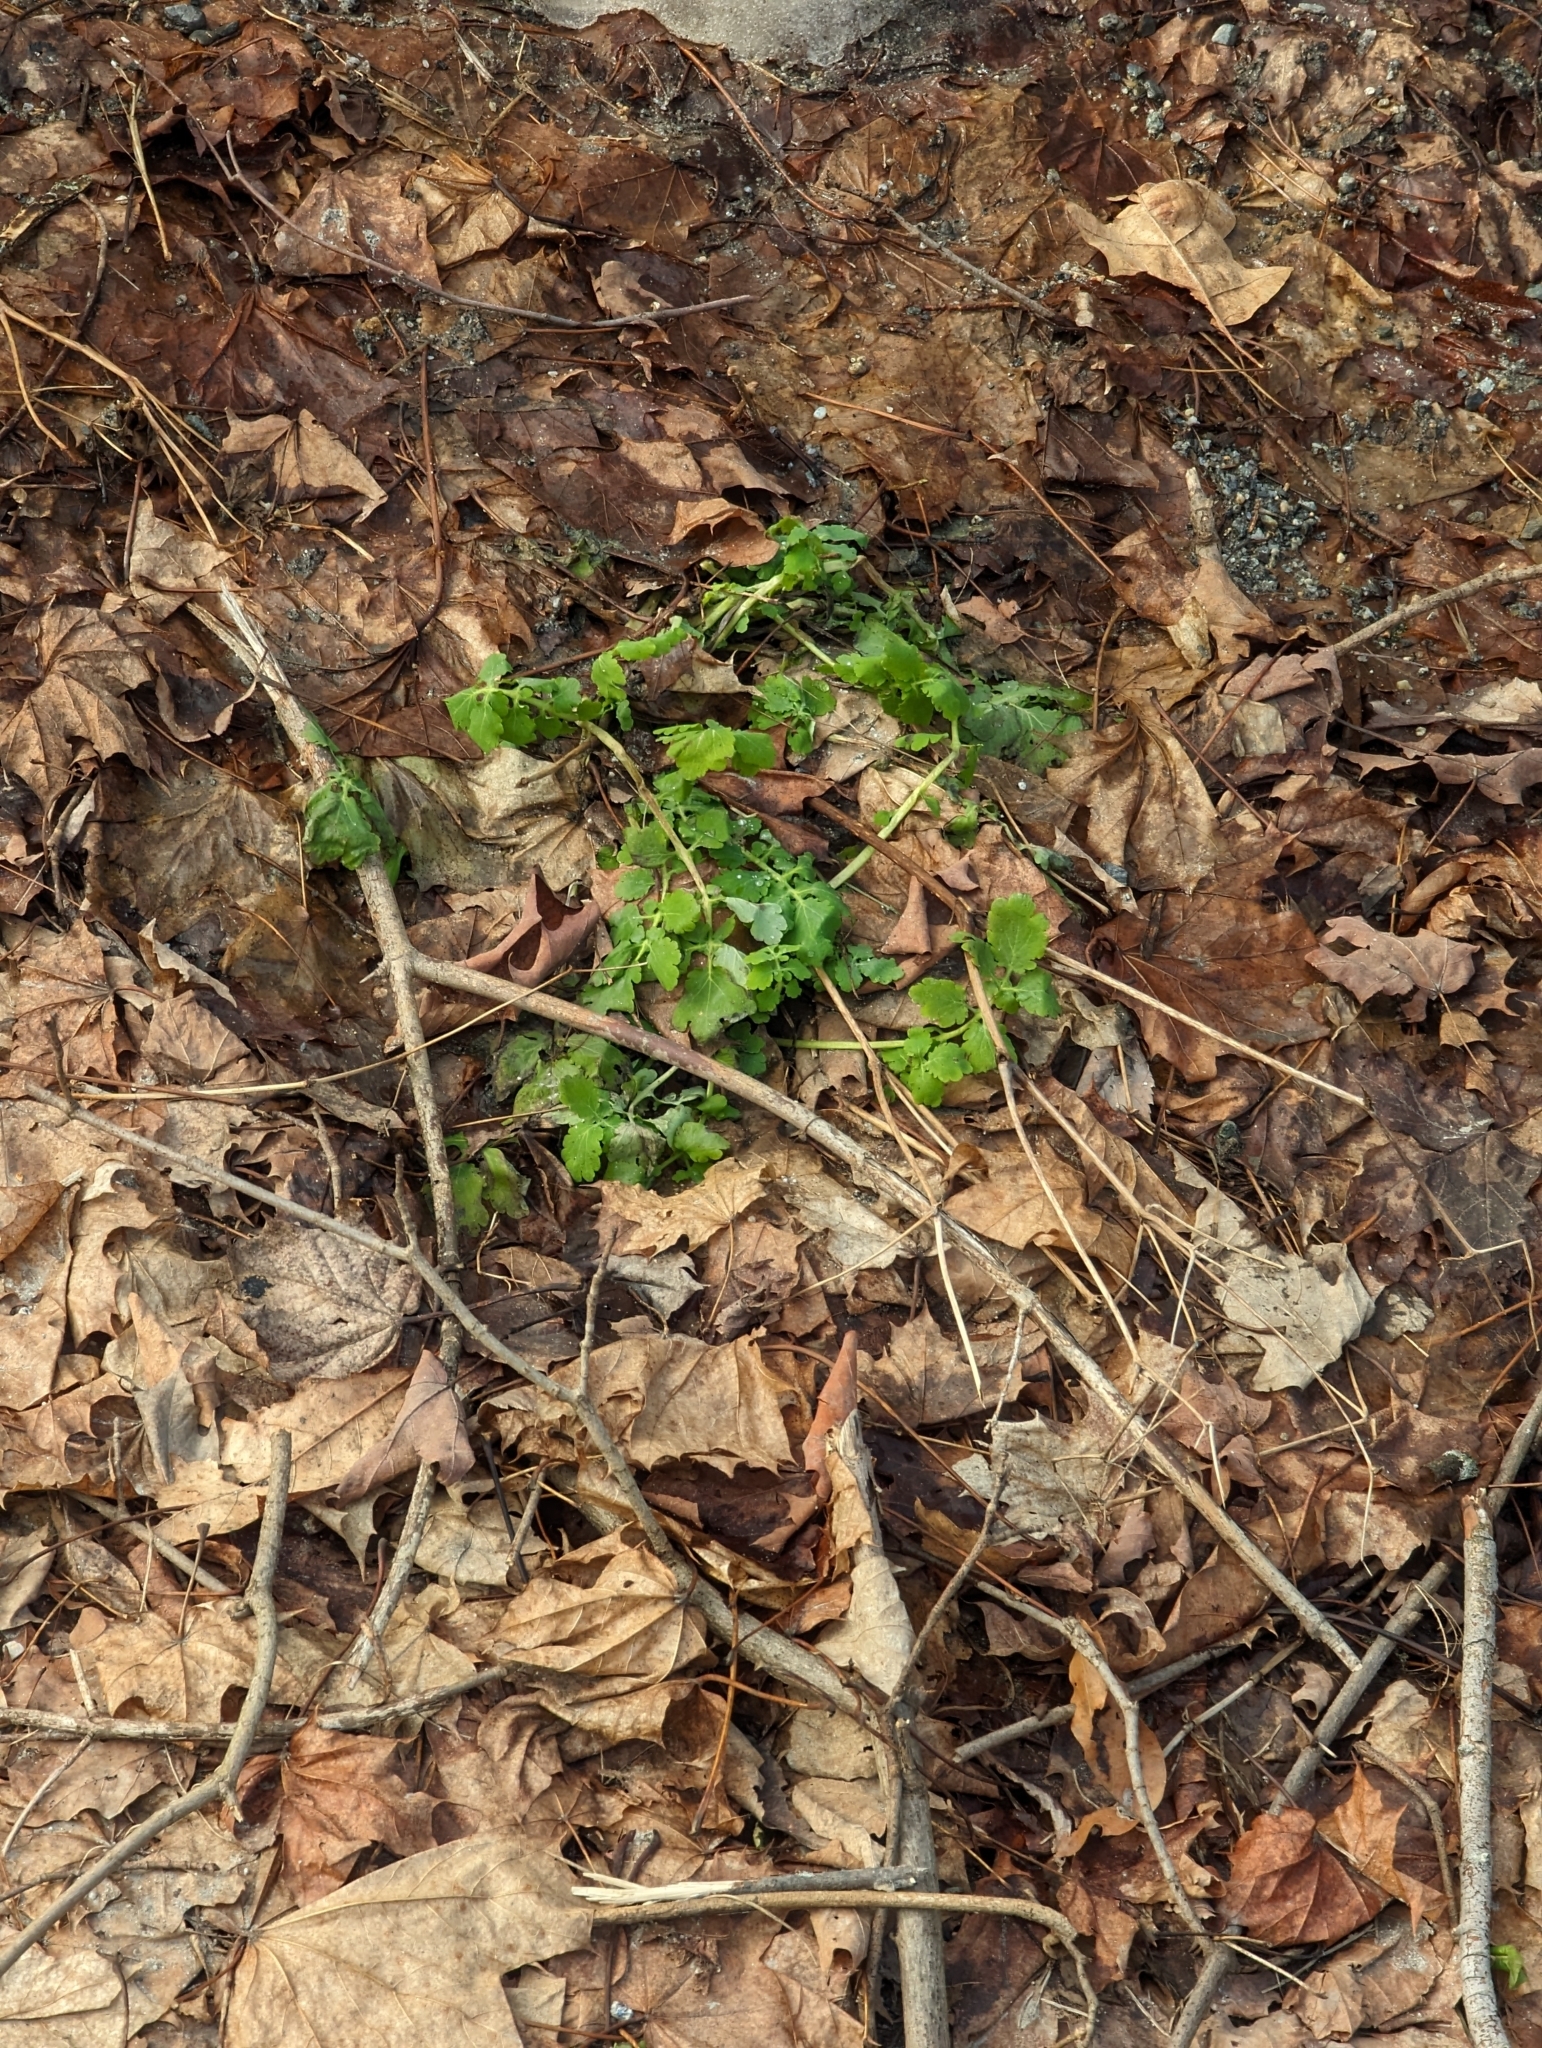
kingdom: Plantae
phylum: Tracheophyta
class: Magnoliopsida
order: Ranunculales
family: Papaveraceae
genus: Chelidonium
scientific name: Chelidonium majus
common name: Greater celandine
